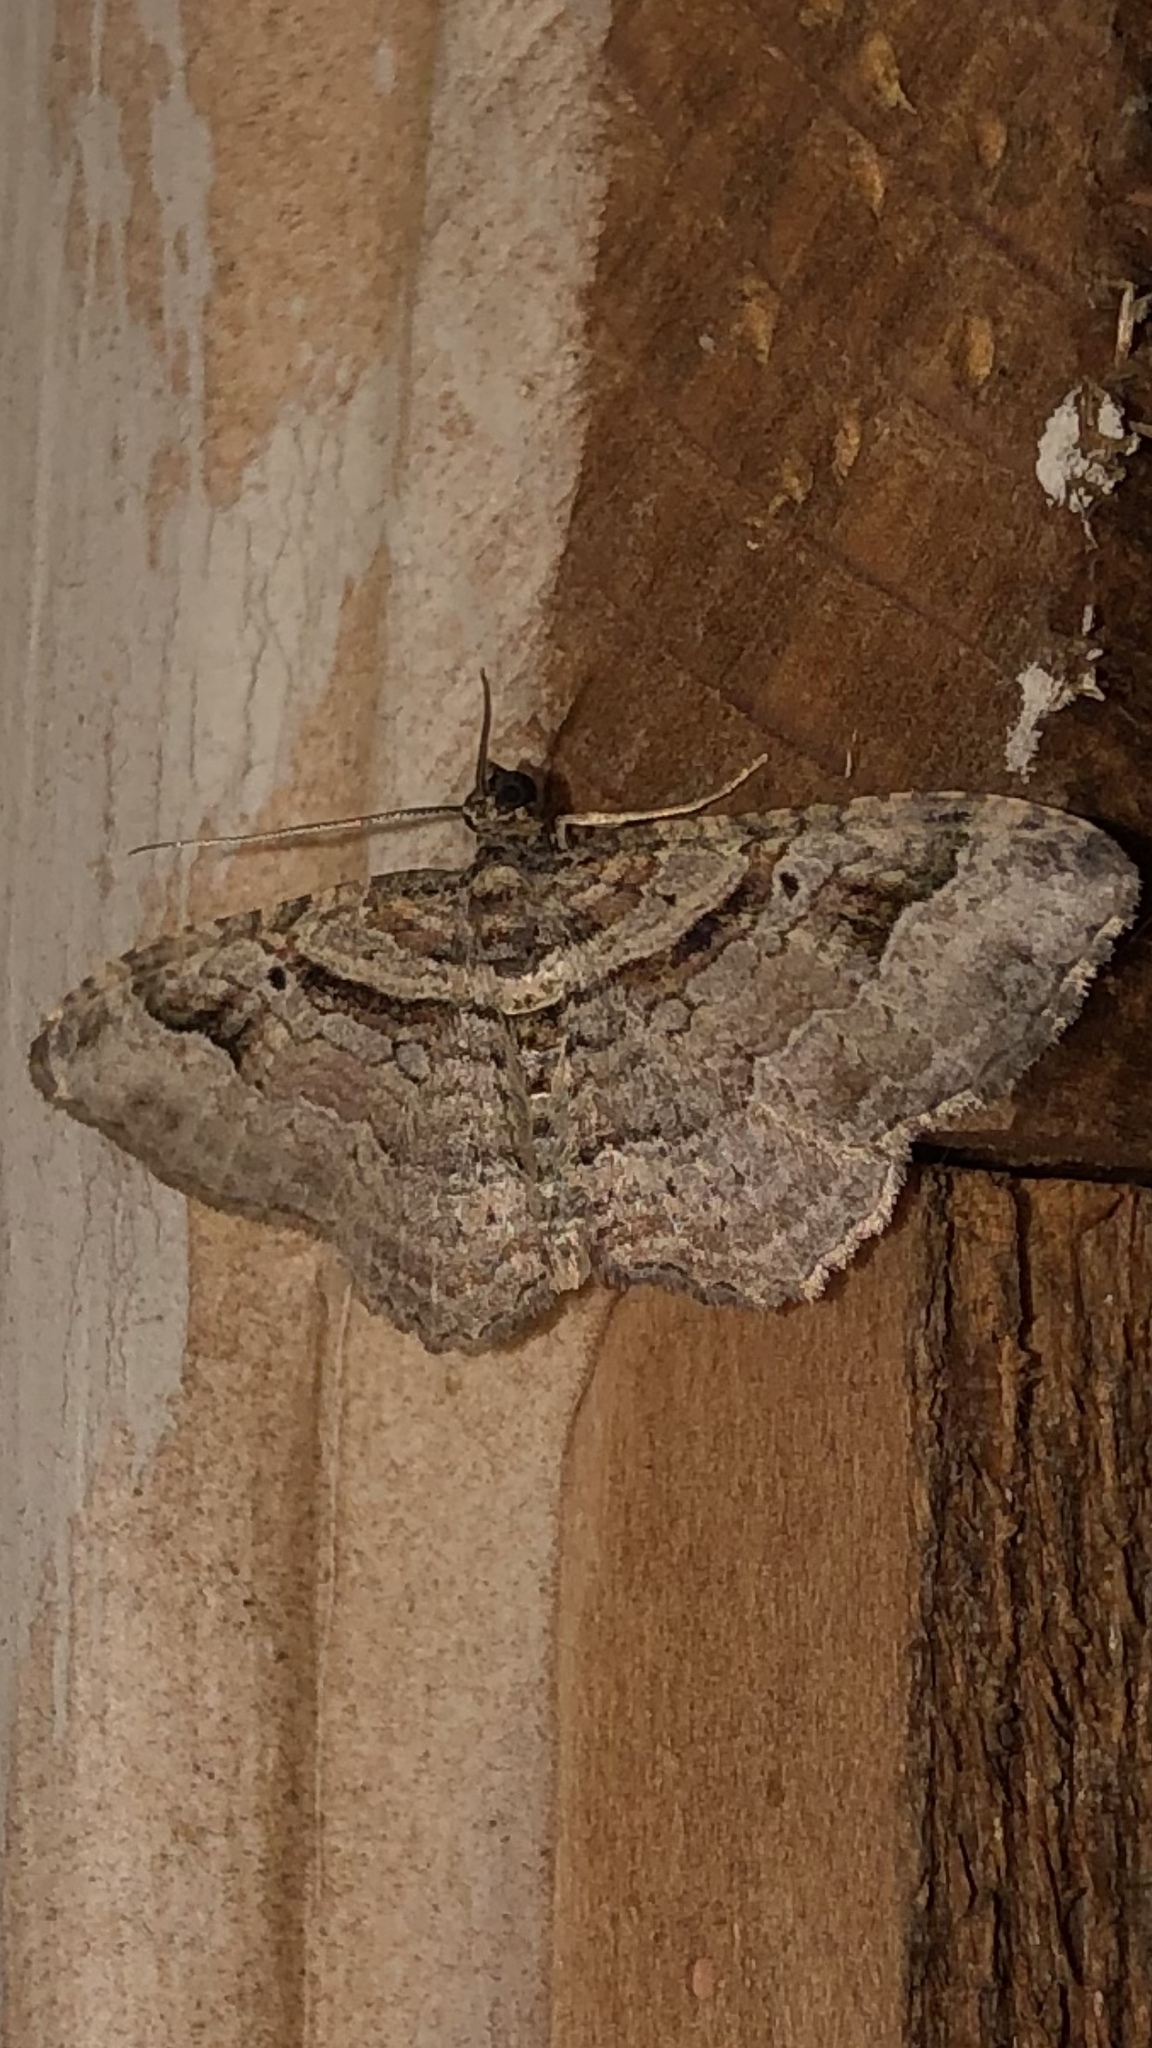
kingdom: Animalia
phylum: Arthropoda
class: Insecta
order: Lepidoptera
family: Geometridae
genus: Costaconvexa
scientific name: Costaconvexa centrostrigaria
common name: Bent-line carpet
